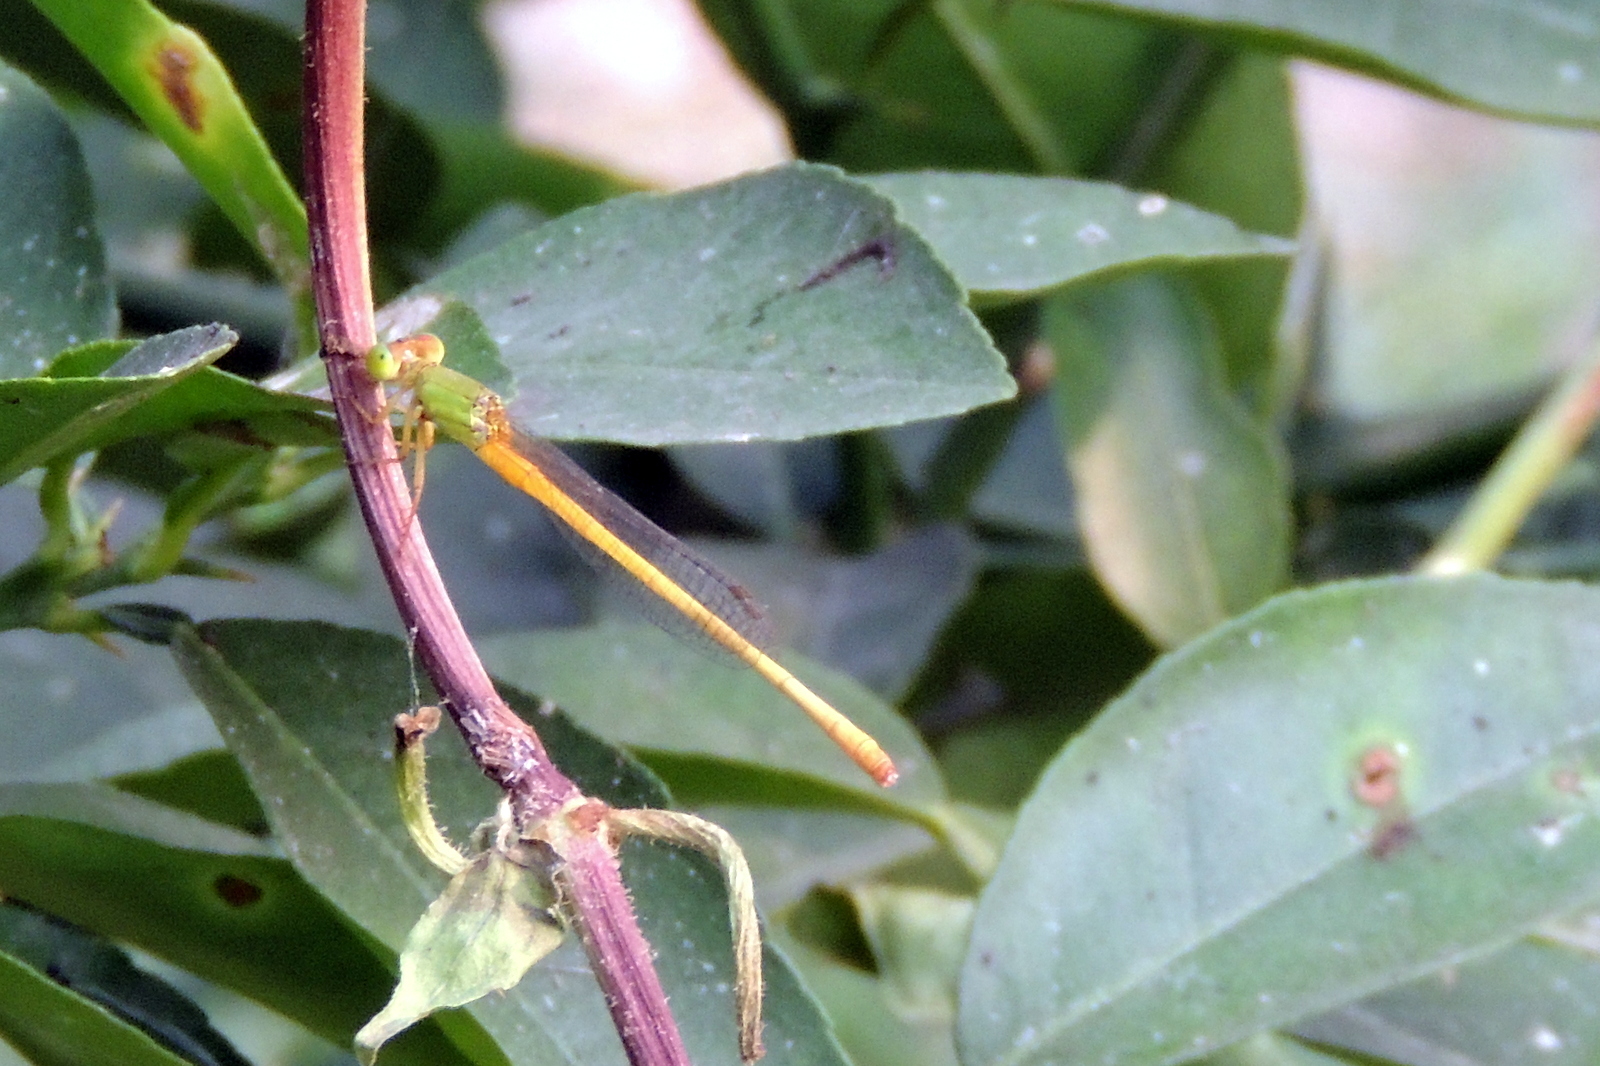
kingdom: Animalia
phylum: Arthropoda
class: Insecta
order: Odonata
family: Coenagrionidae
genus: Ceriagrion
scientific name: Ceriagrion coromandelianum
